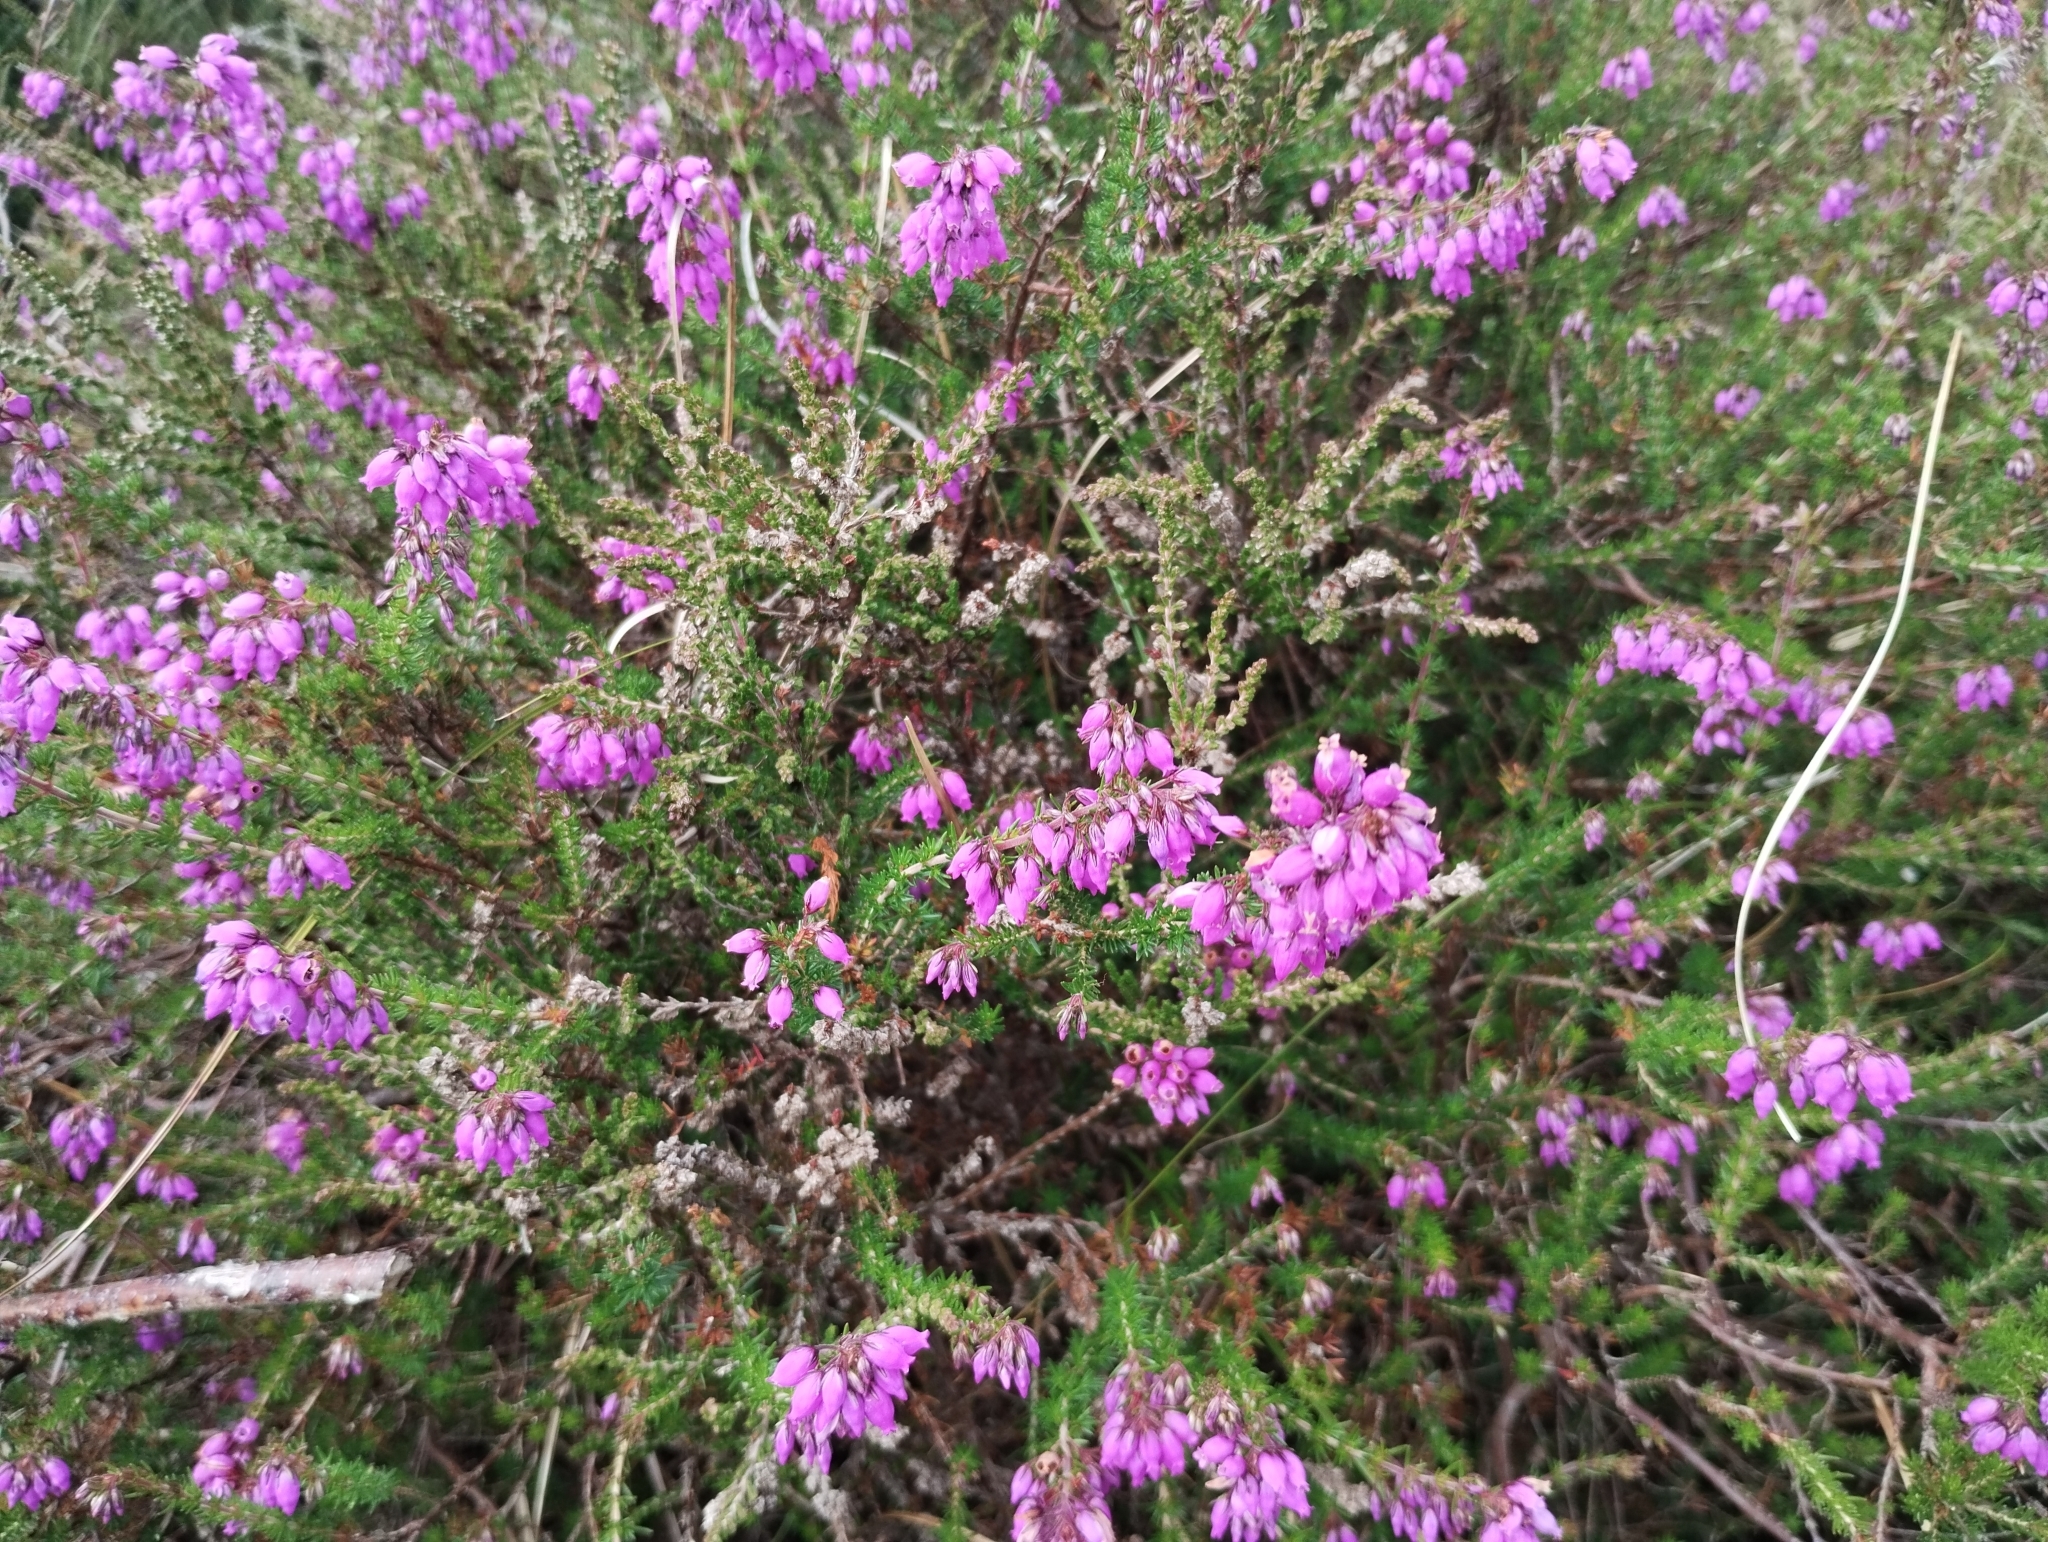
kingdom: Plantae
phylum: Tracheophyta
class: Magnoliopsida
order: Ericales
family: Ericaceae
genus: Erica
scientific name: Erica cinerea
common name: Bell heather
